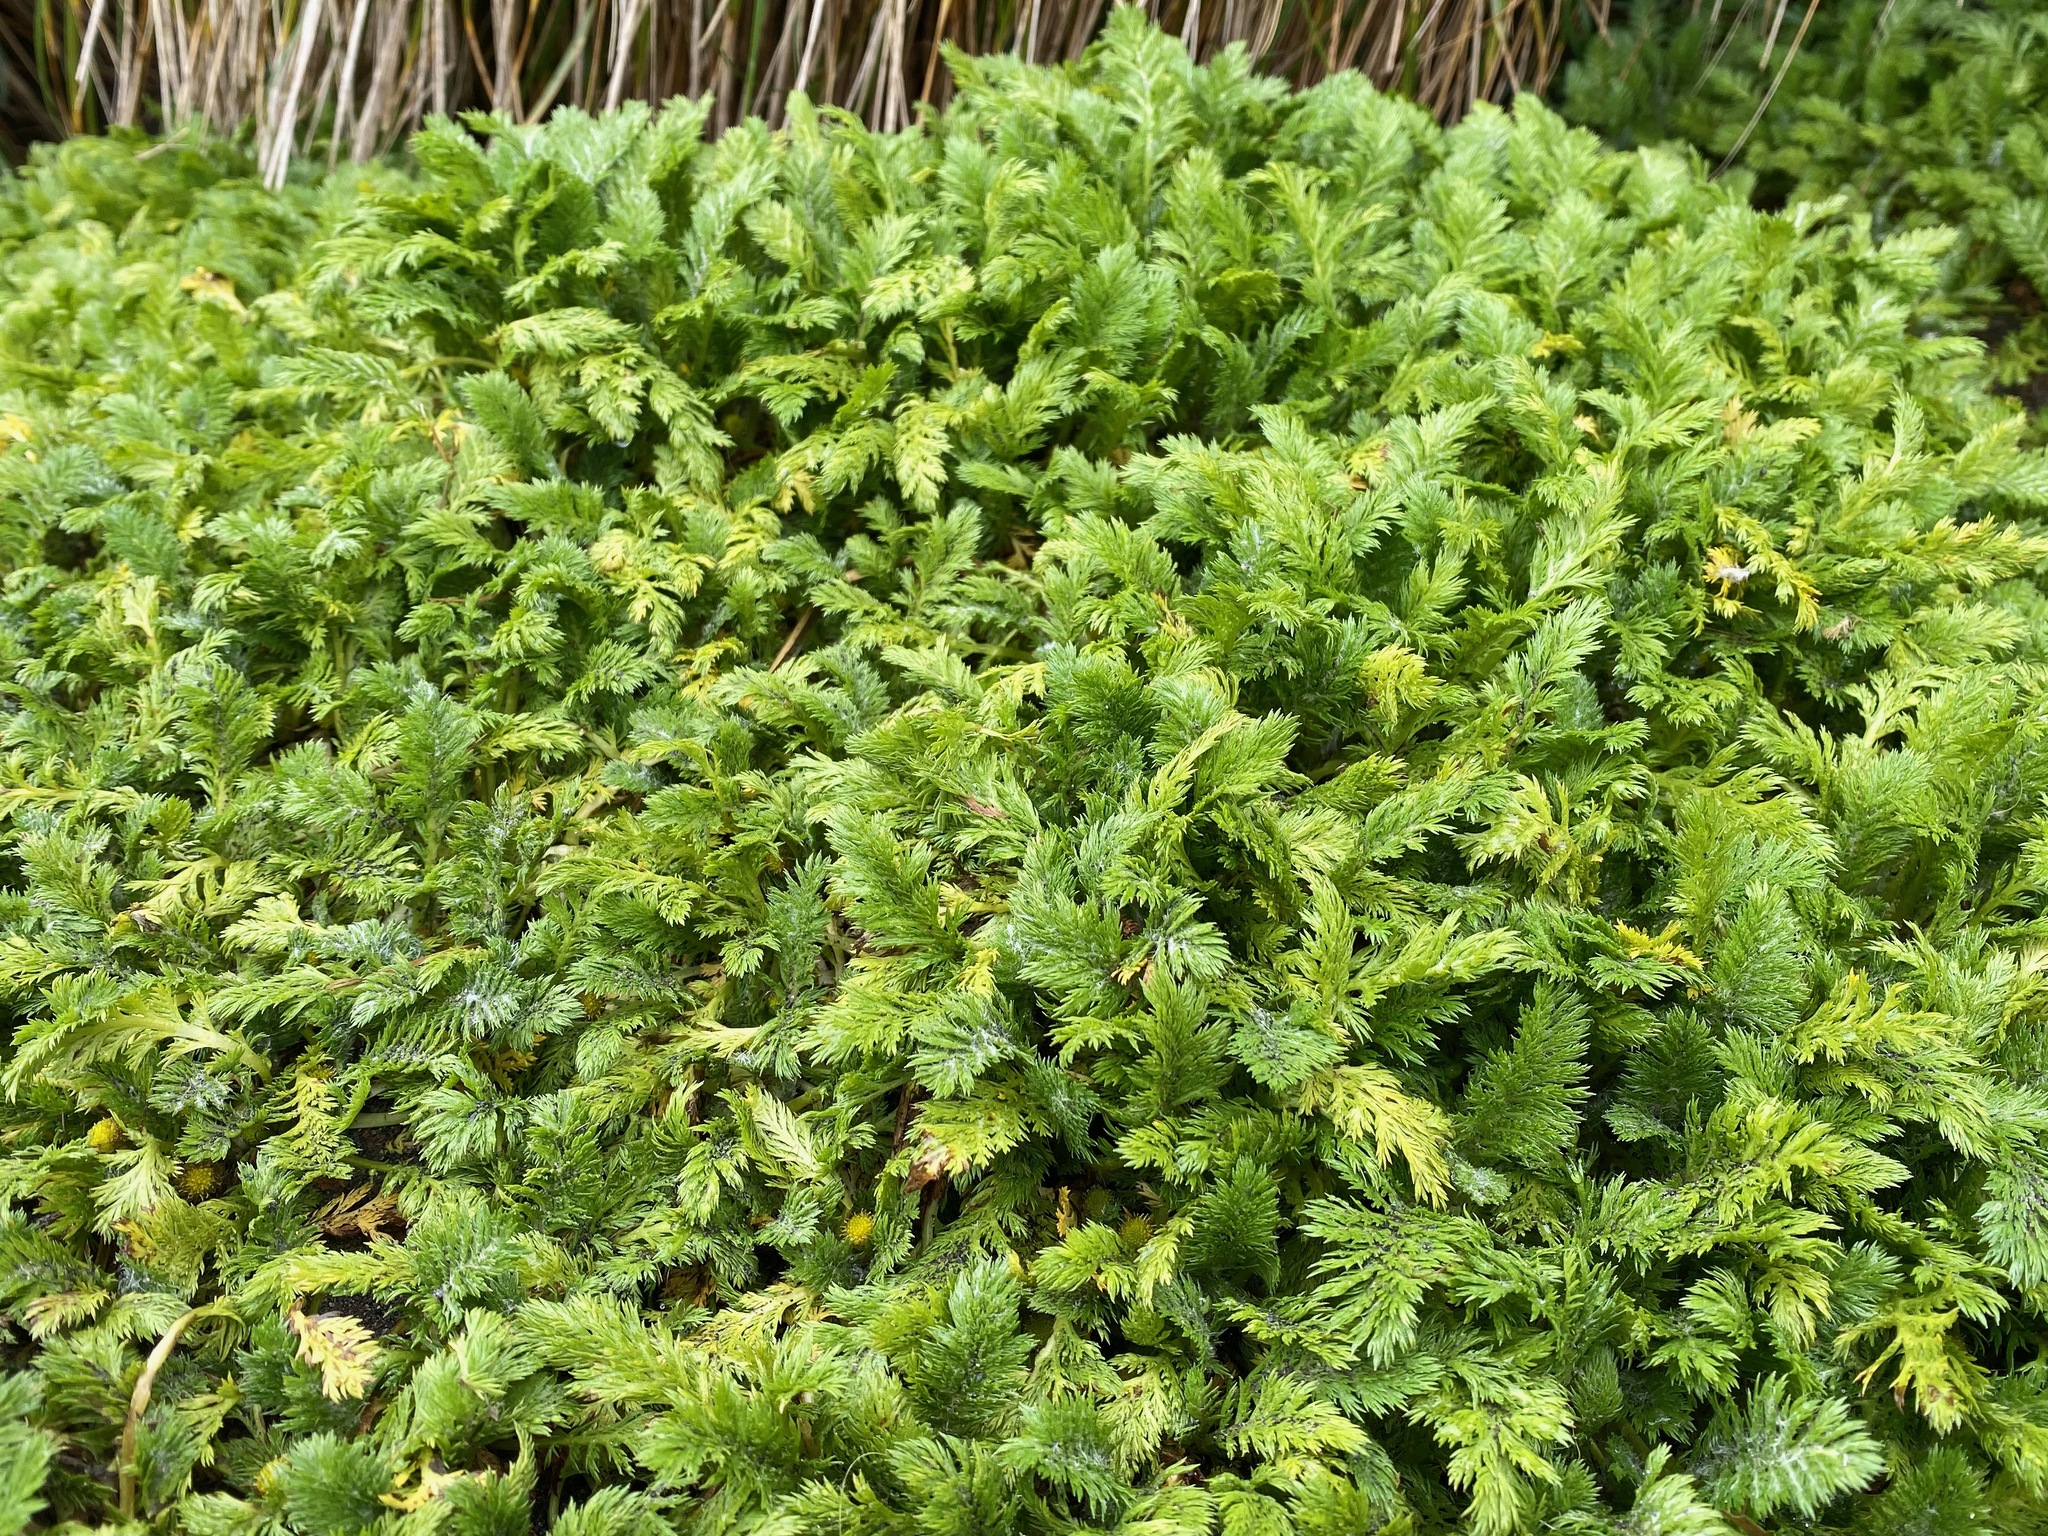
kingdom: Plantae
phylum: Tracheophyta
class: Magnoliopsida
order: Asterales
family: Asteraceae
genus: Leptinella
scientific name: Leptinella plumosa
